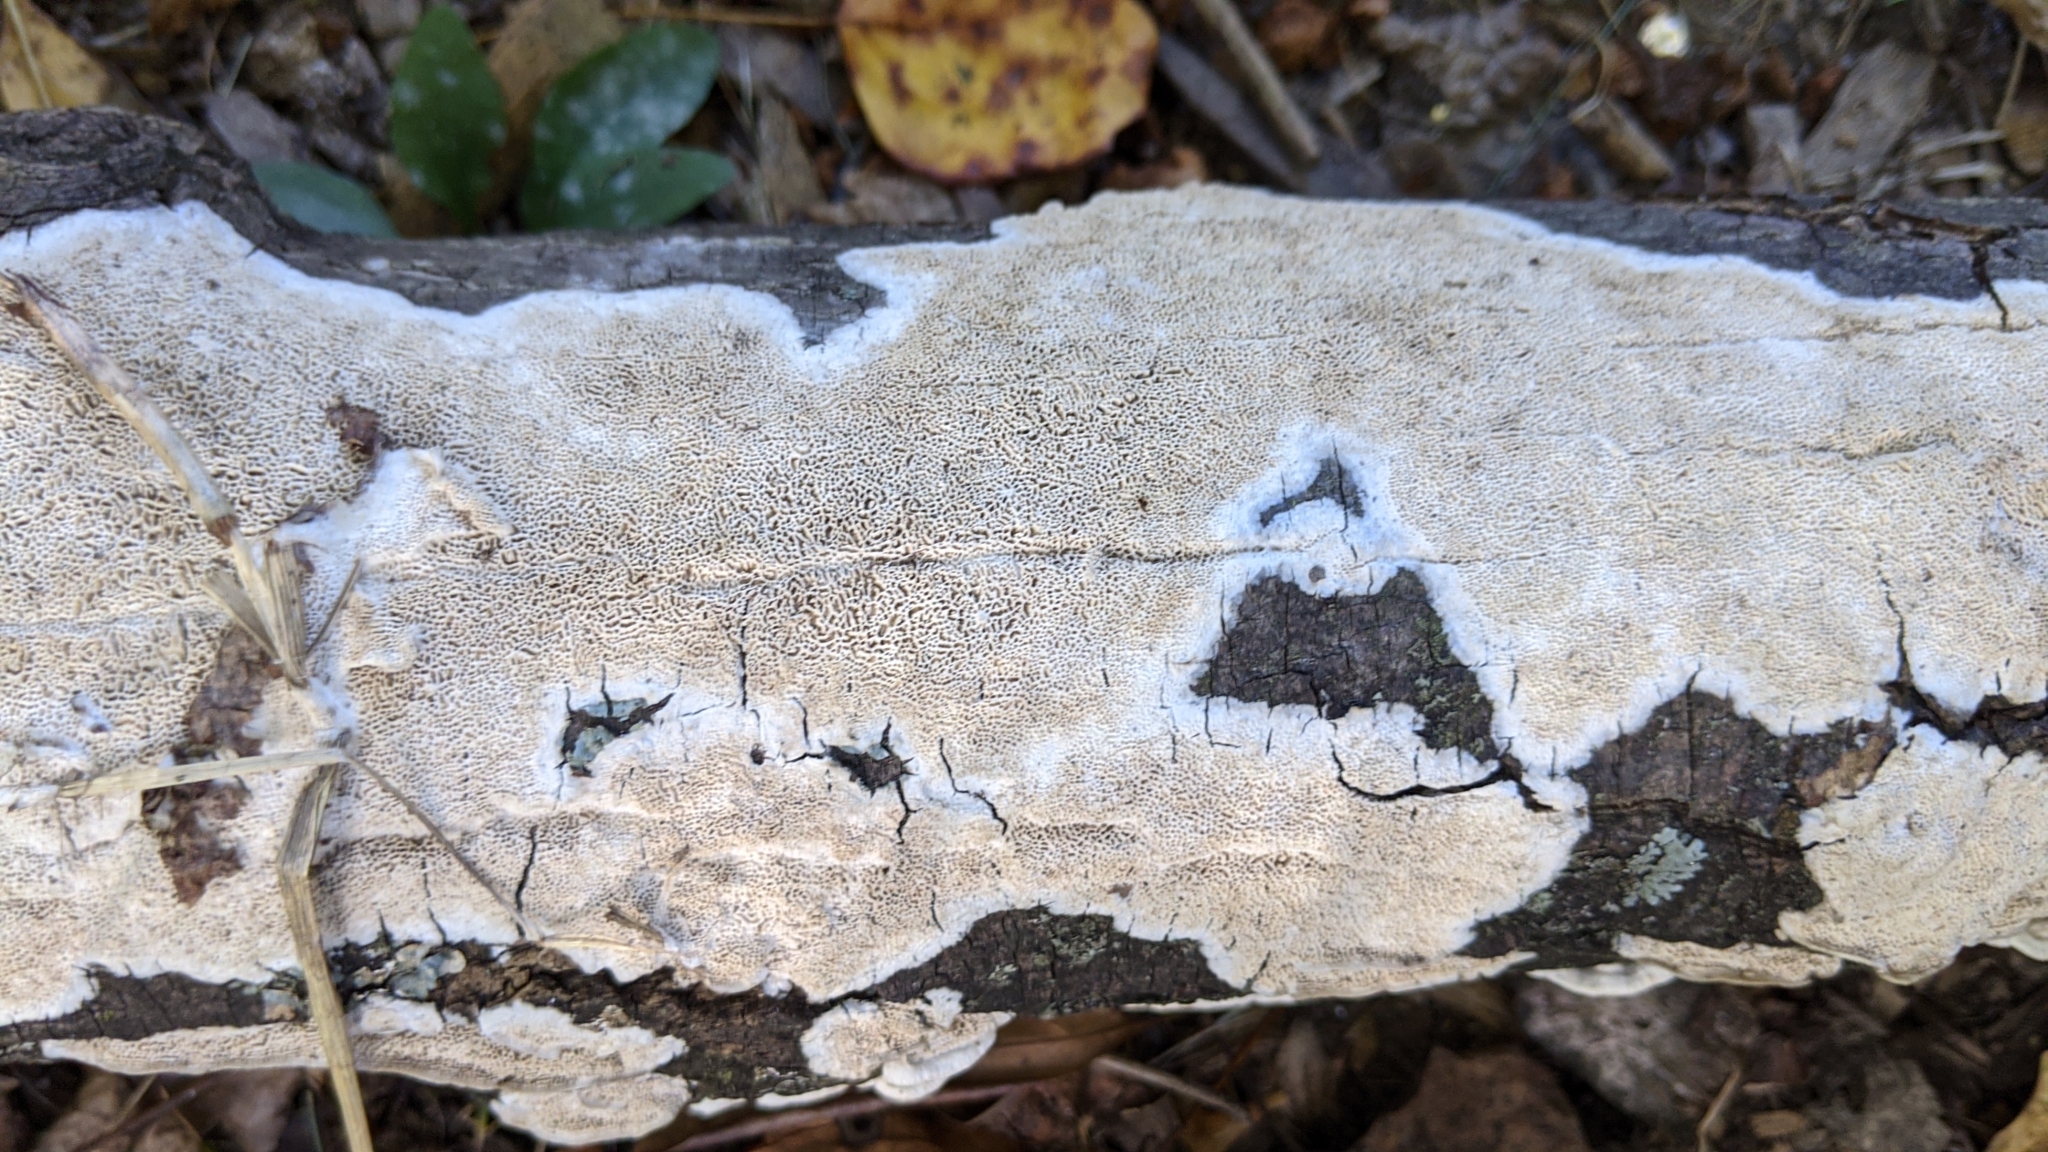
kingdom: Fungi
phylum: Basidiomycota
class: Agaricomycetes
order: Polyporales
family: Irpicaceae
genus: Irpex
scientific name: Irpex lacteus
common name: Milk-white toothed polypore
